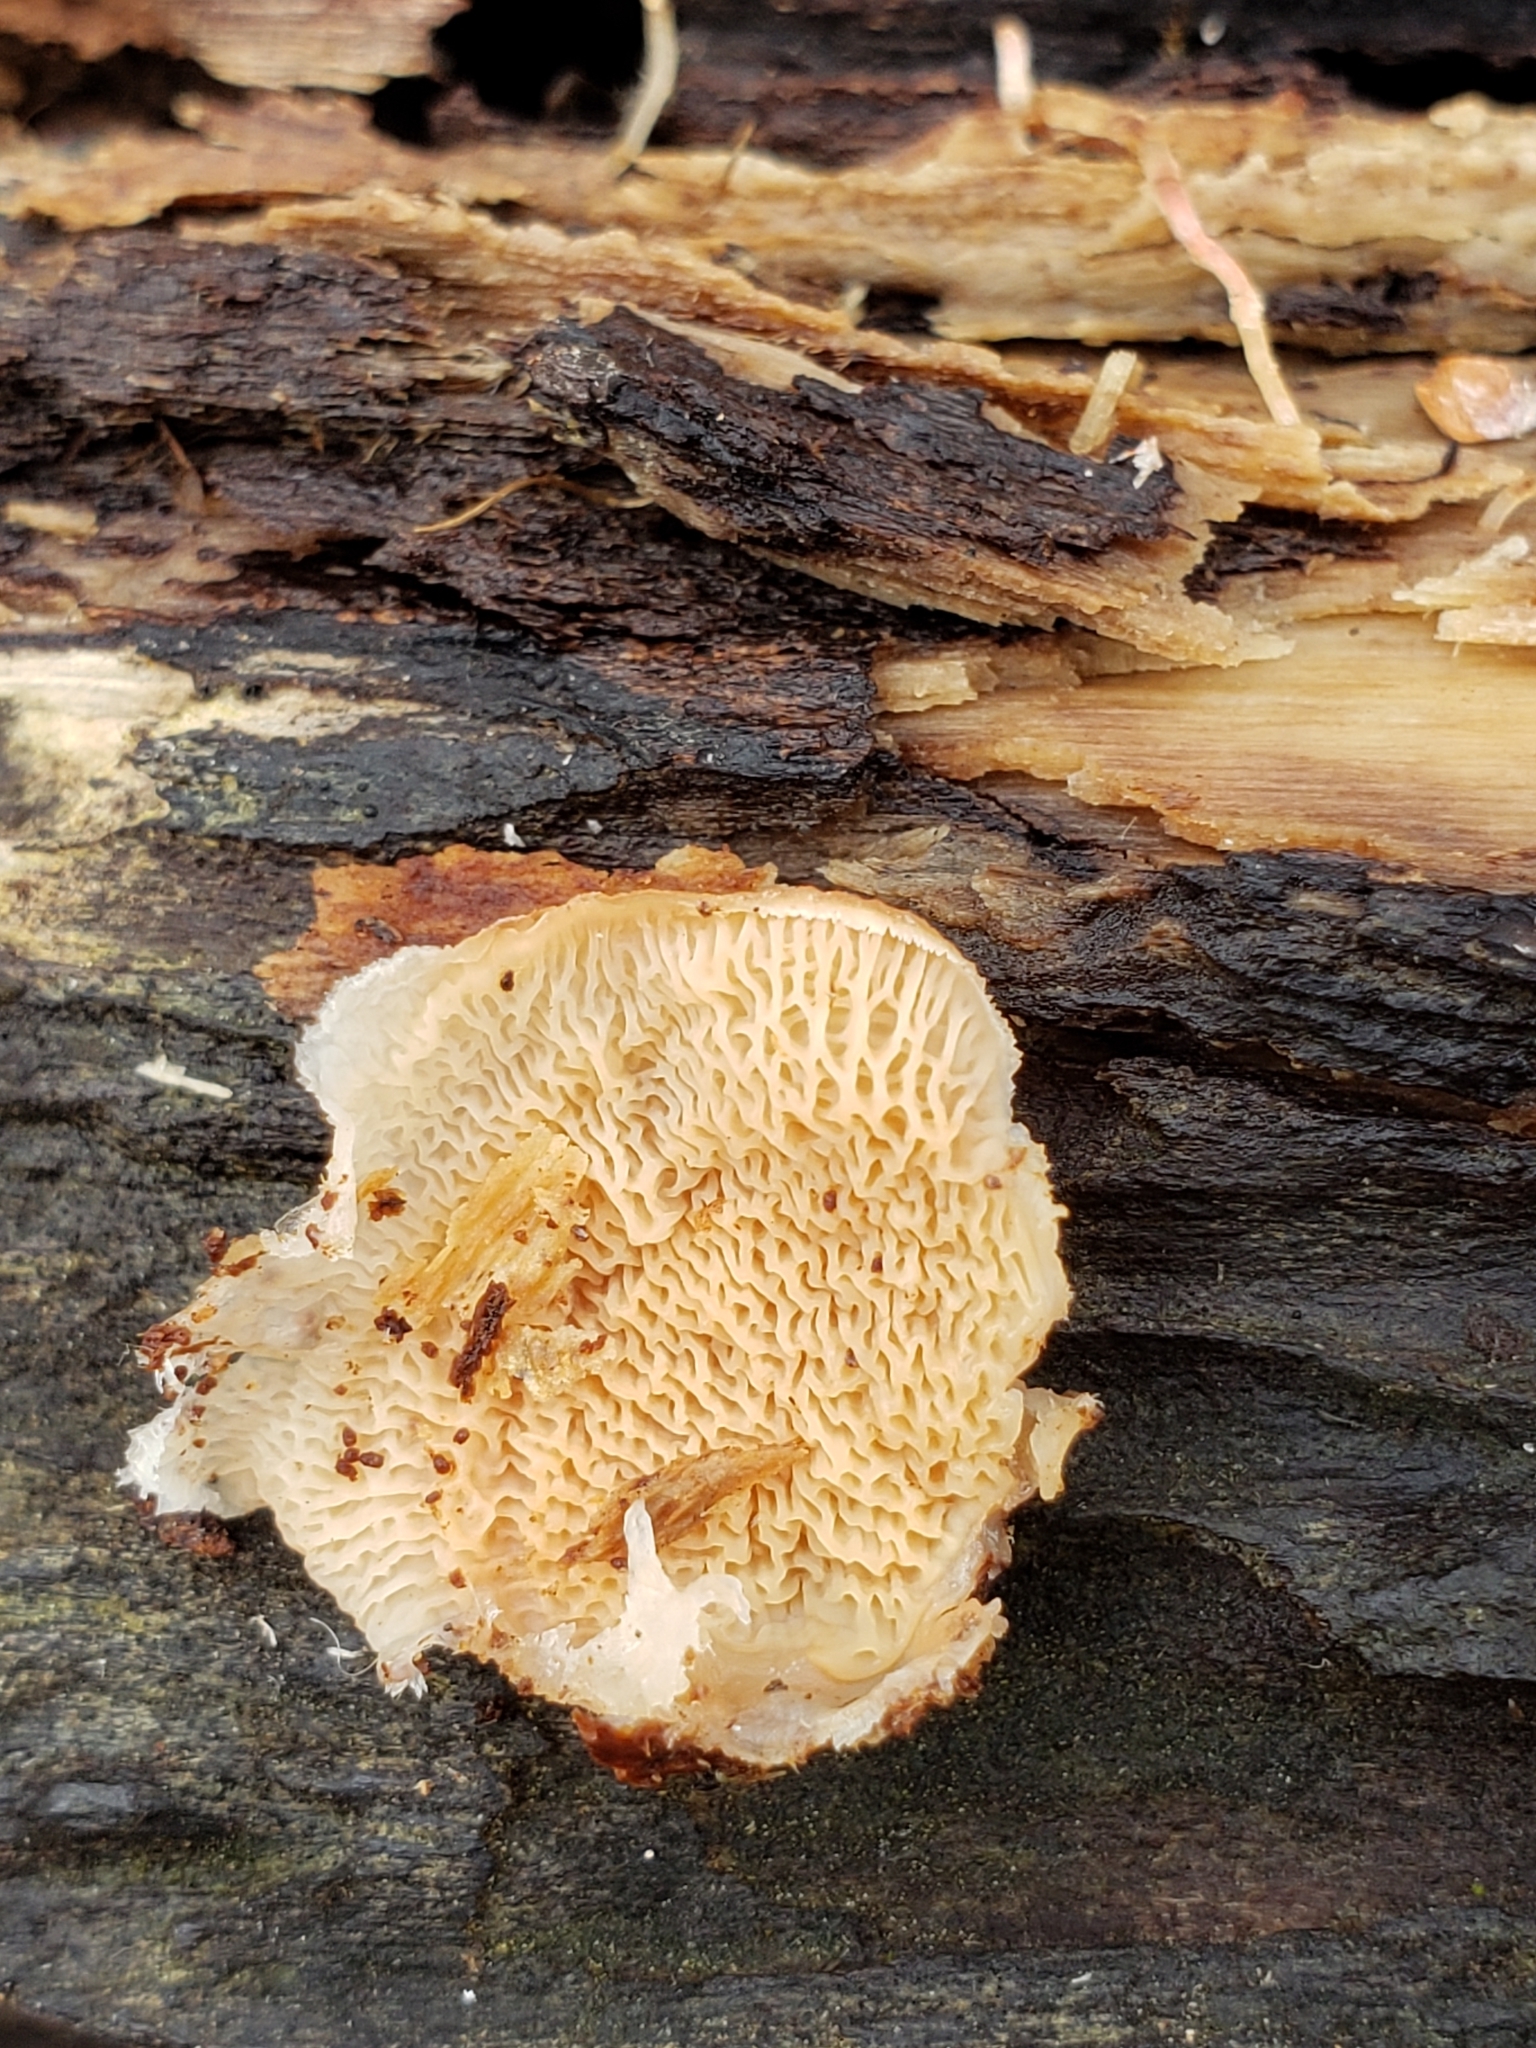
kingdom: Fungi
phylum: Basidiomycota
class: Agaricomycetes
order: Polyporales
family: Meruliaceae
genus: Phlebia
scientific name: Phlebia tremellosa
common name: Jelly rot
